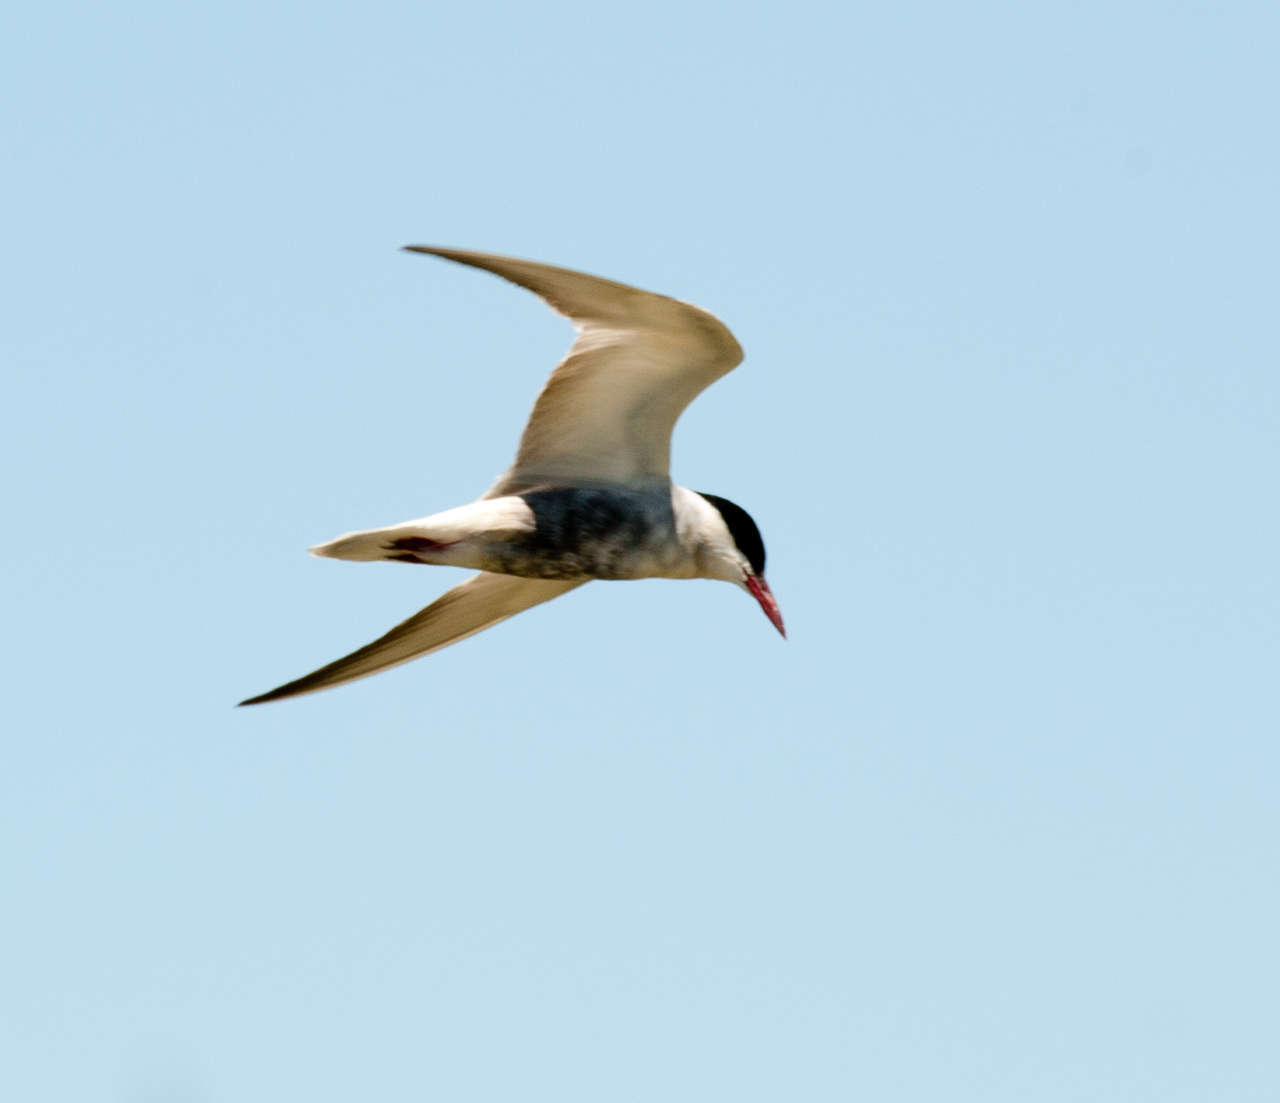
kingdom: Animalia
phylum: Chordata
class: Aves
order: Charadriiformes
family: Laridae
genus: Chlidonias
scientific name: Chlidonias hybrida
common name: Whiskered tern
